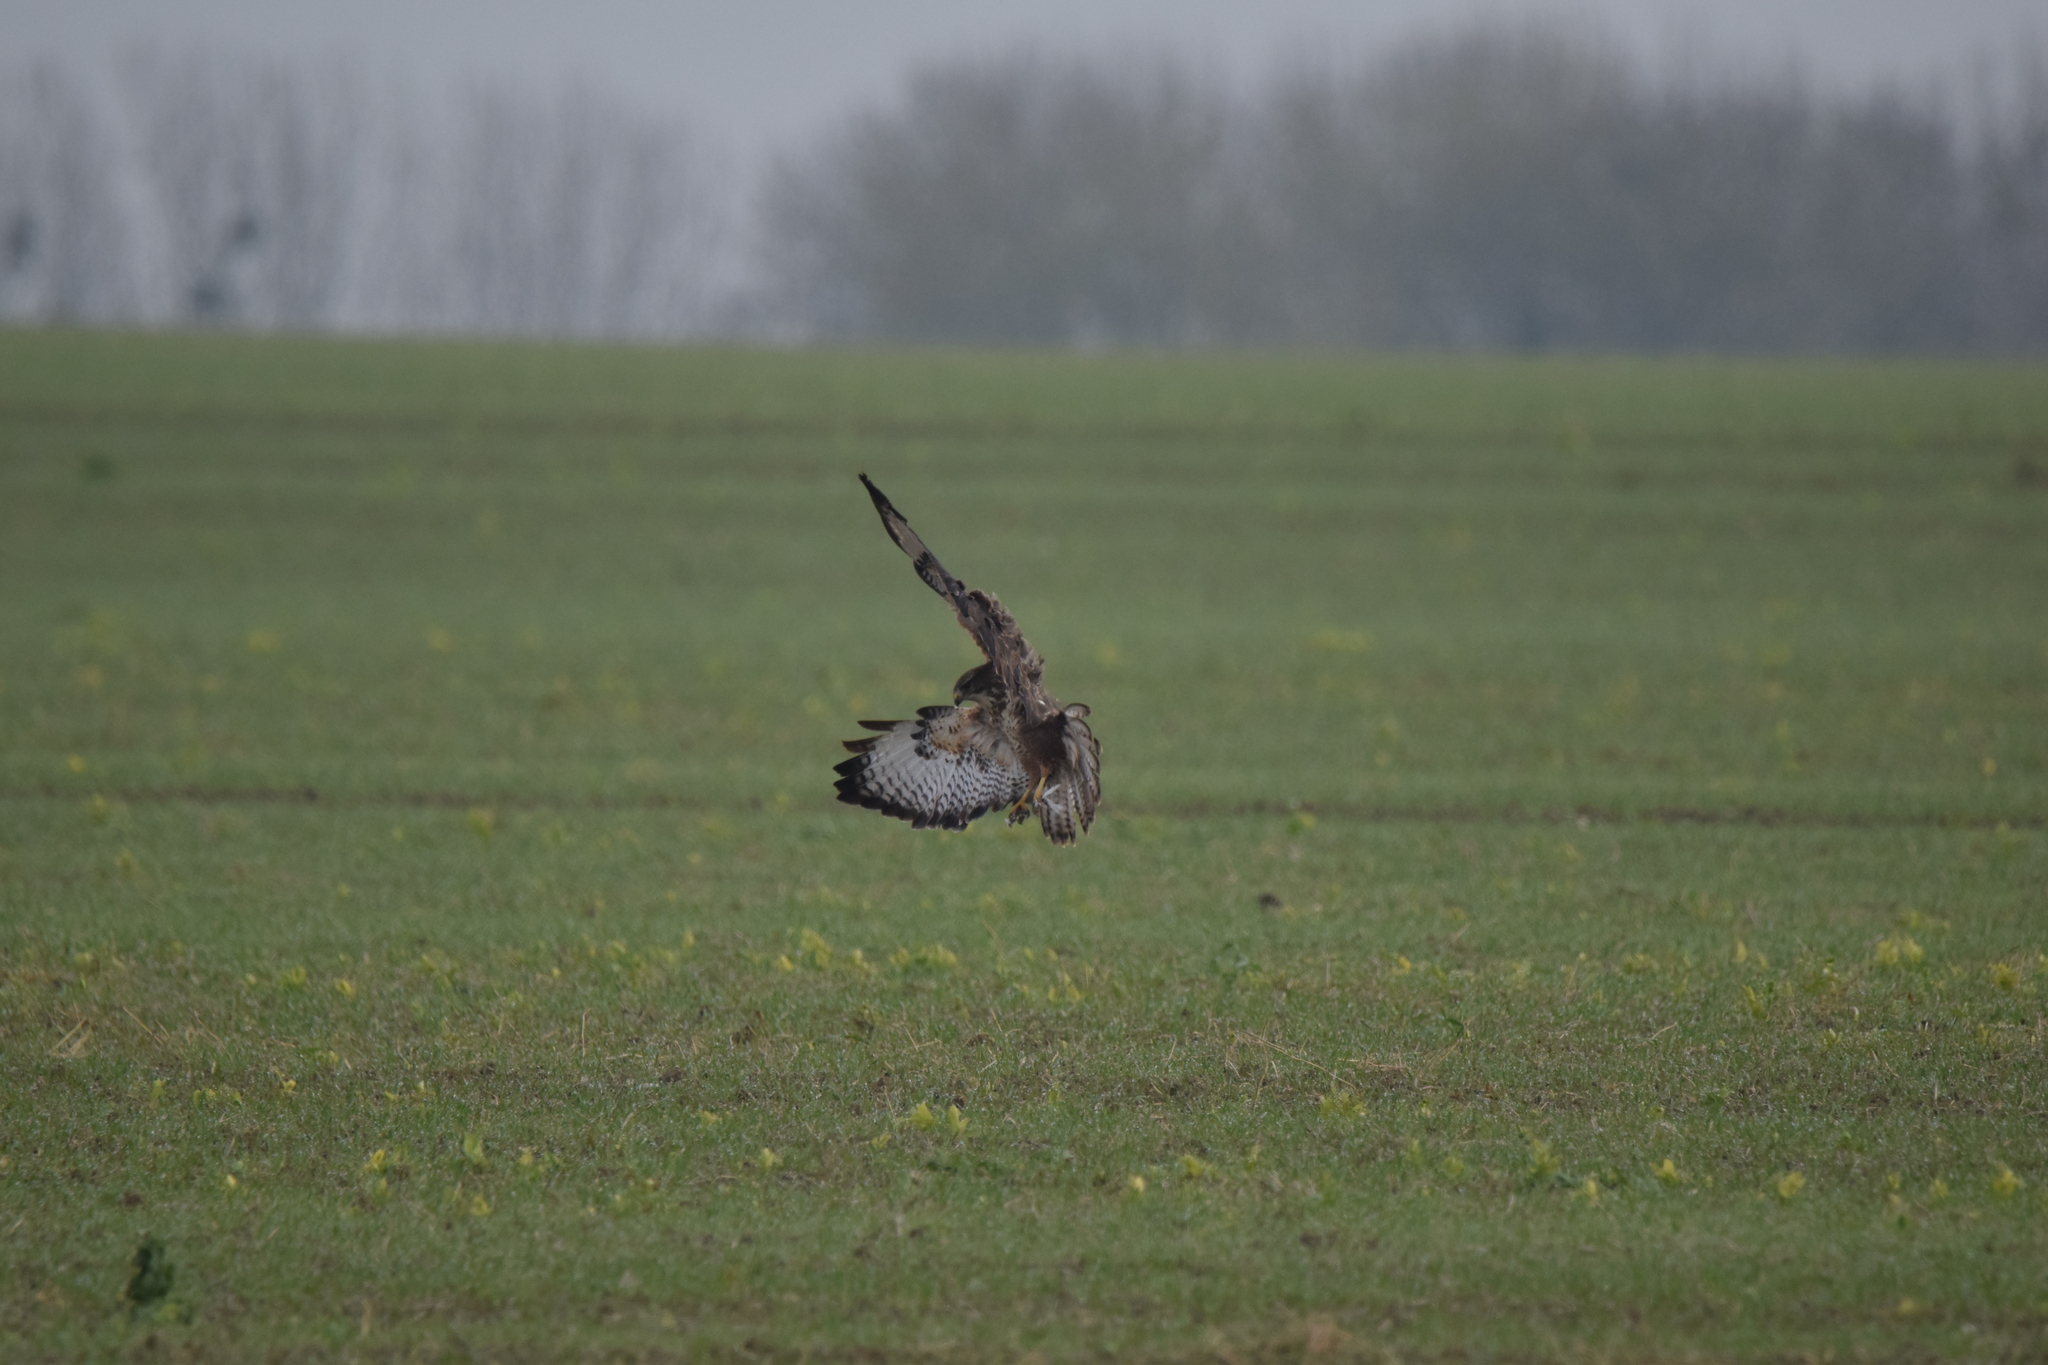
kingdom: Animalia
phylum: Chordata
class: Aves
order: Accipitriformes
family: Accipitridae
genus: Buteo
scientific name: Buteo buteo
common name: Common buzzard
